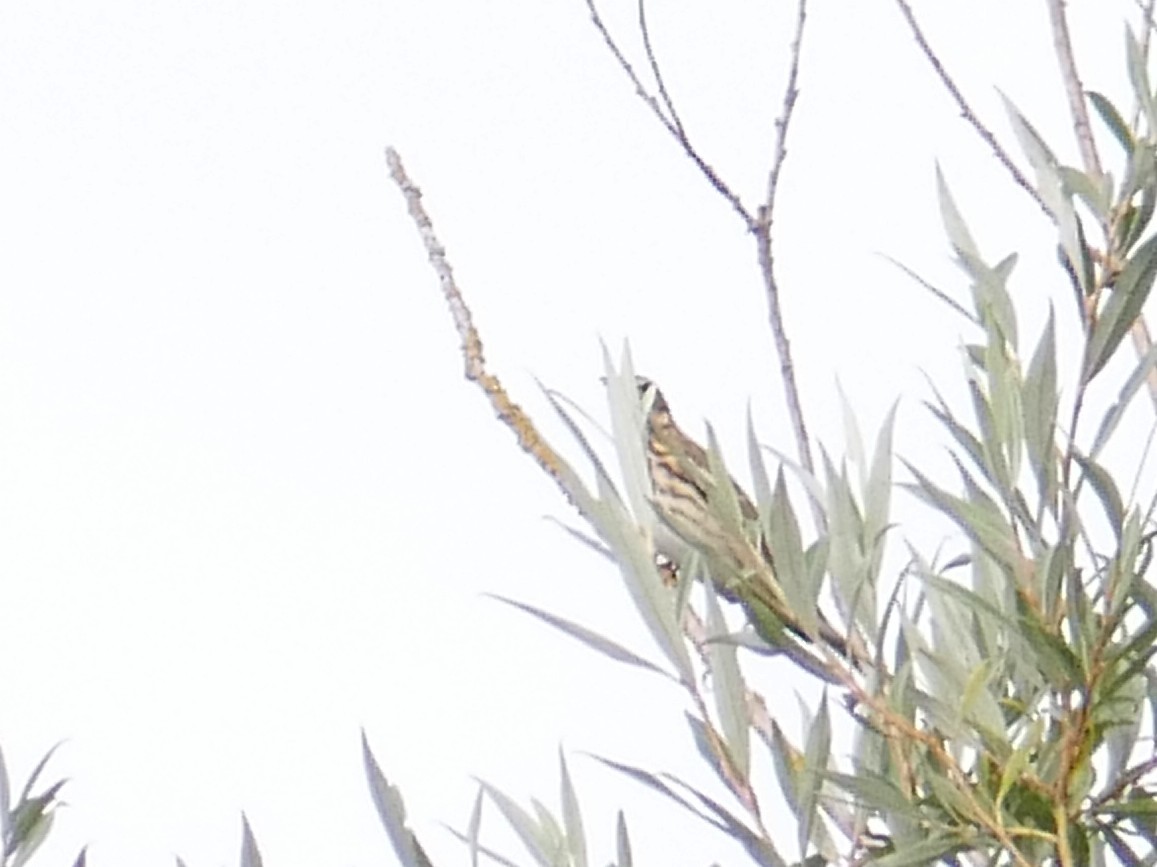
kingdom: Animalia
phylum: Chordata
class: Aves
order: Passeriformes
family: Motacillidae
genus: Anthus
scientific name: Anthus trivialis
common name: Tree pipit
